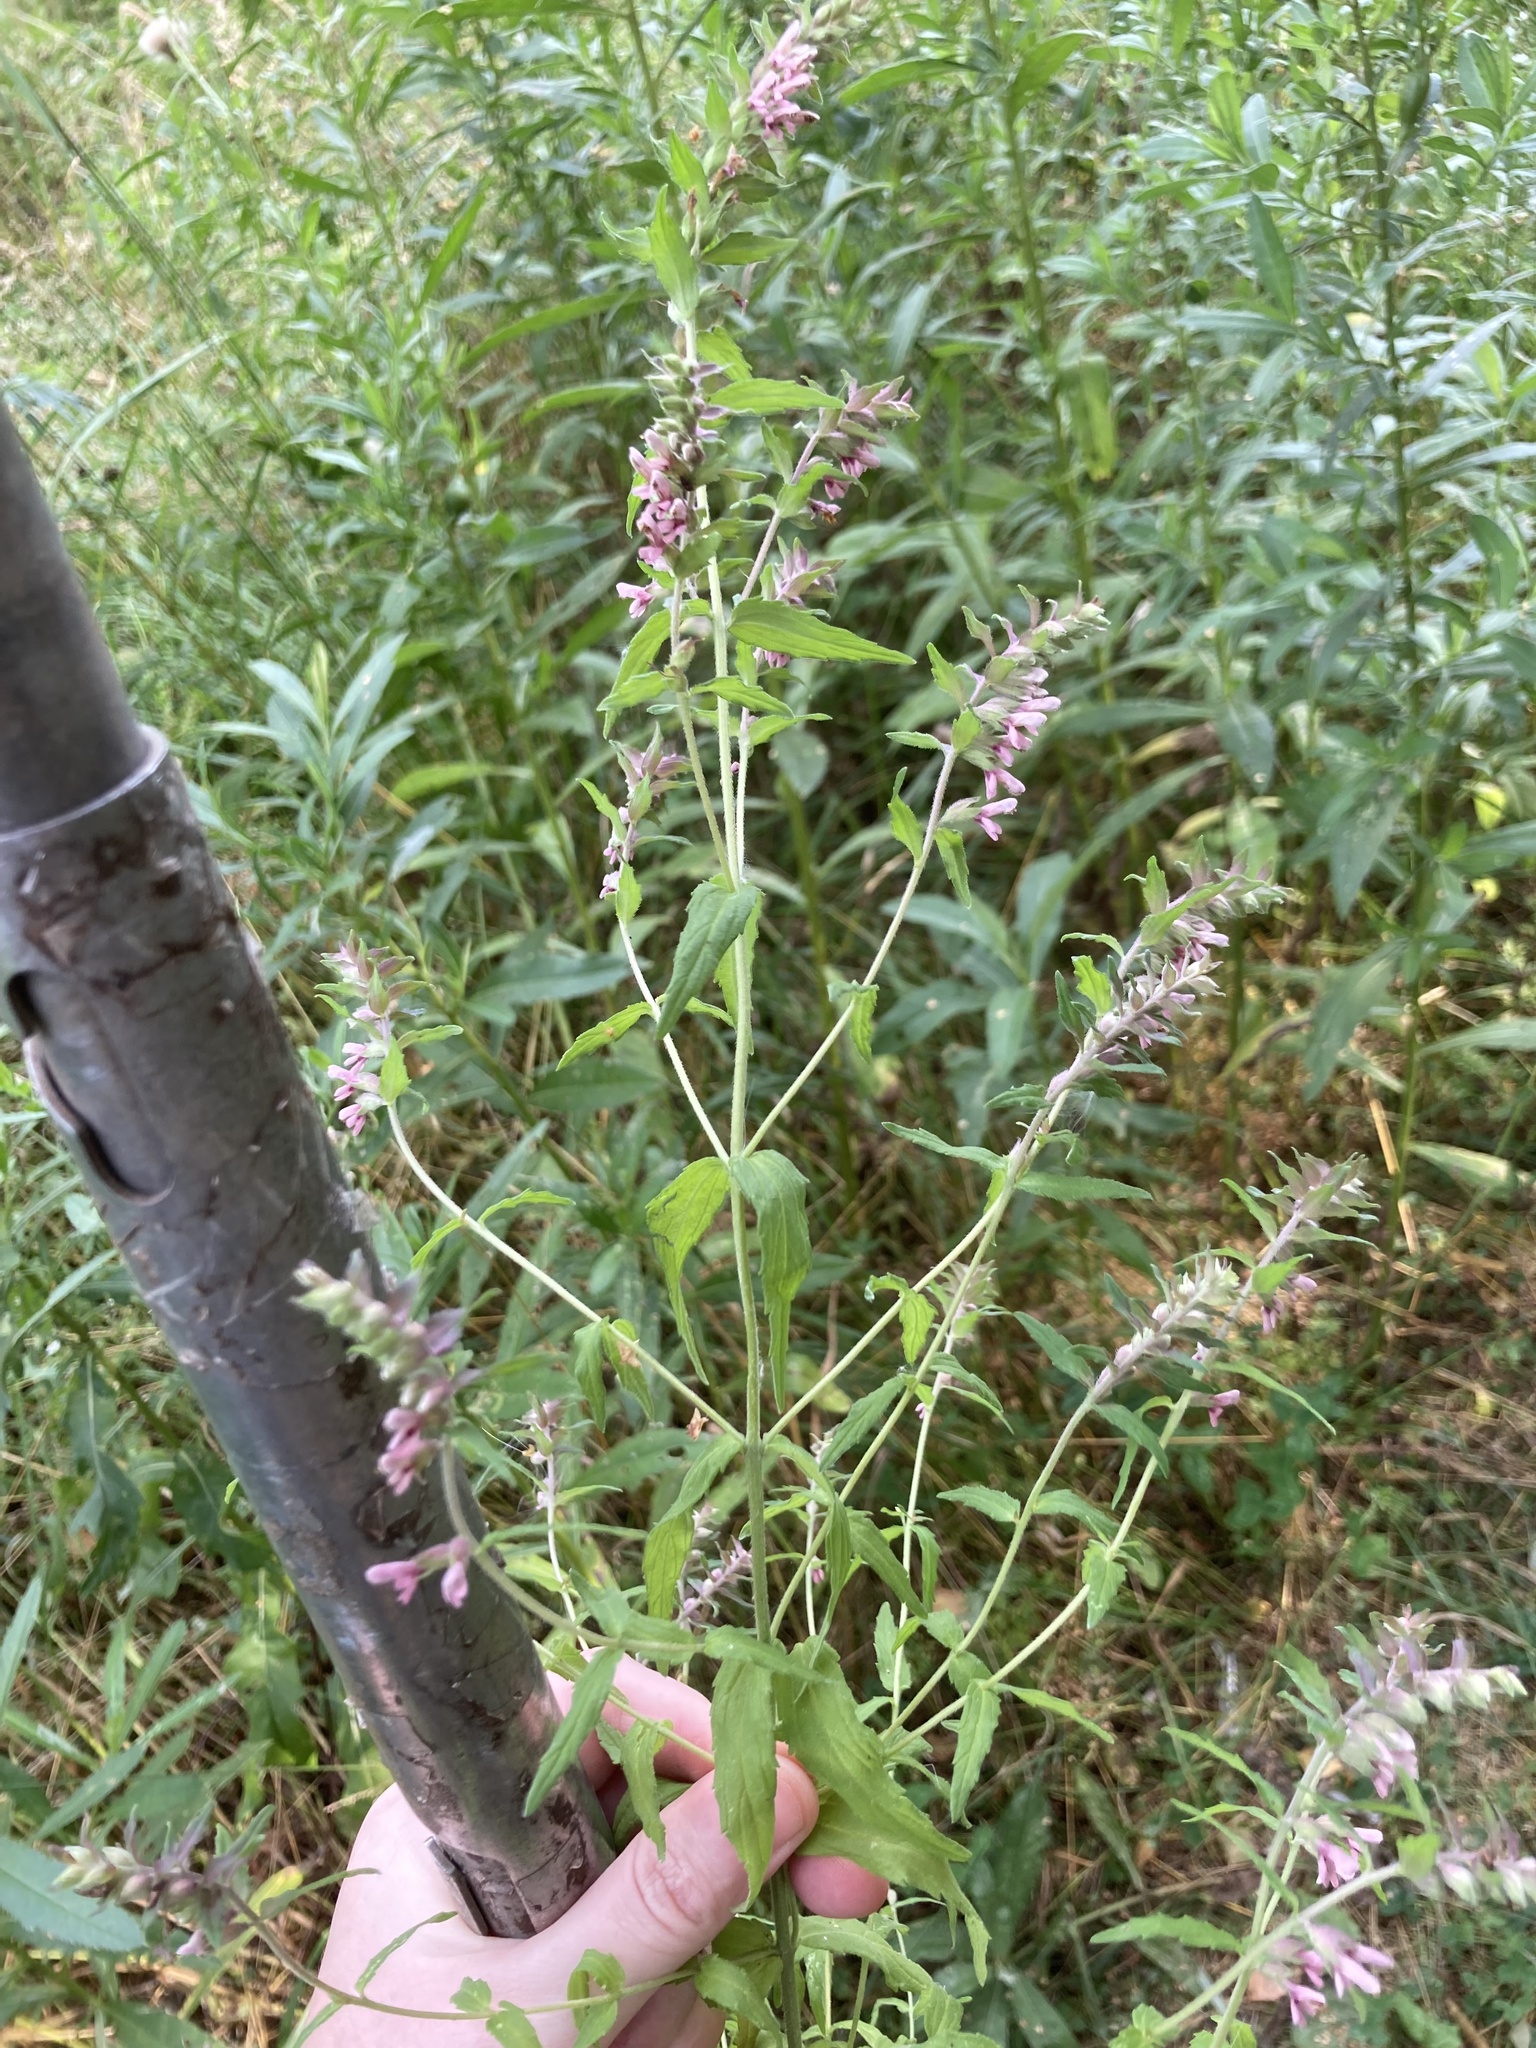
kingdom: Plantae
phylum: Tracheophyta
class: Magnoliopsida
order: Lamiales
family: Orobanchaceae
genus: Odontites
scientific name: Odontites vulgaris
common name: Broomrape
